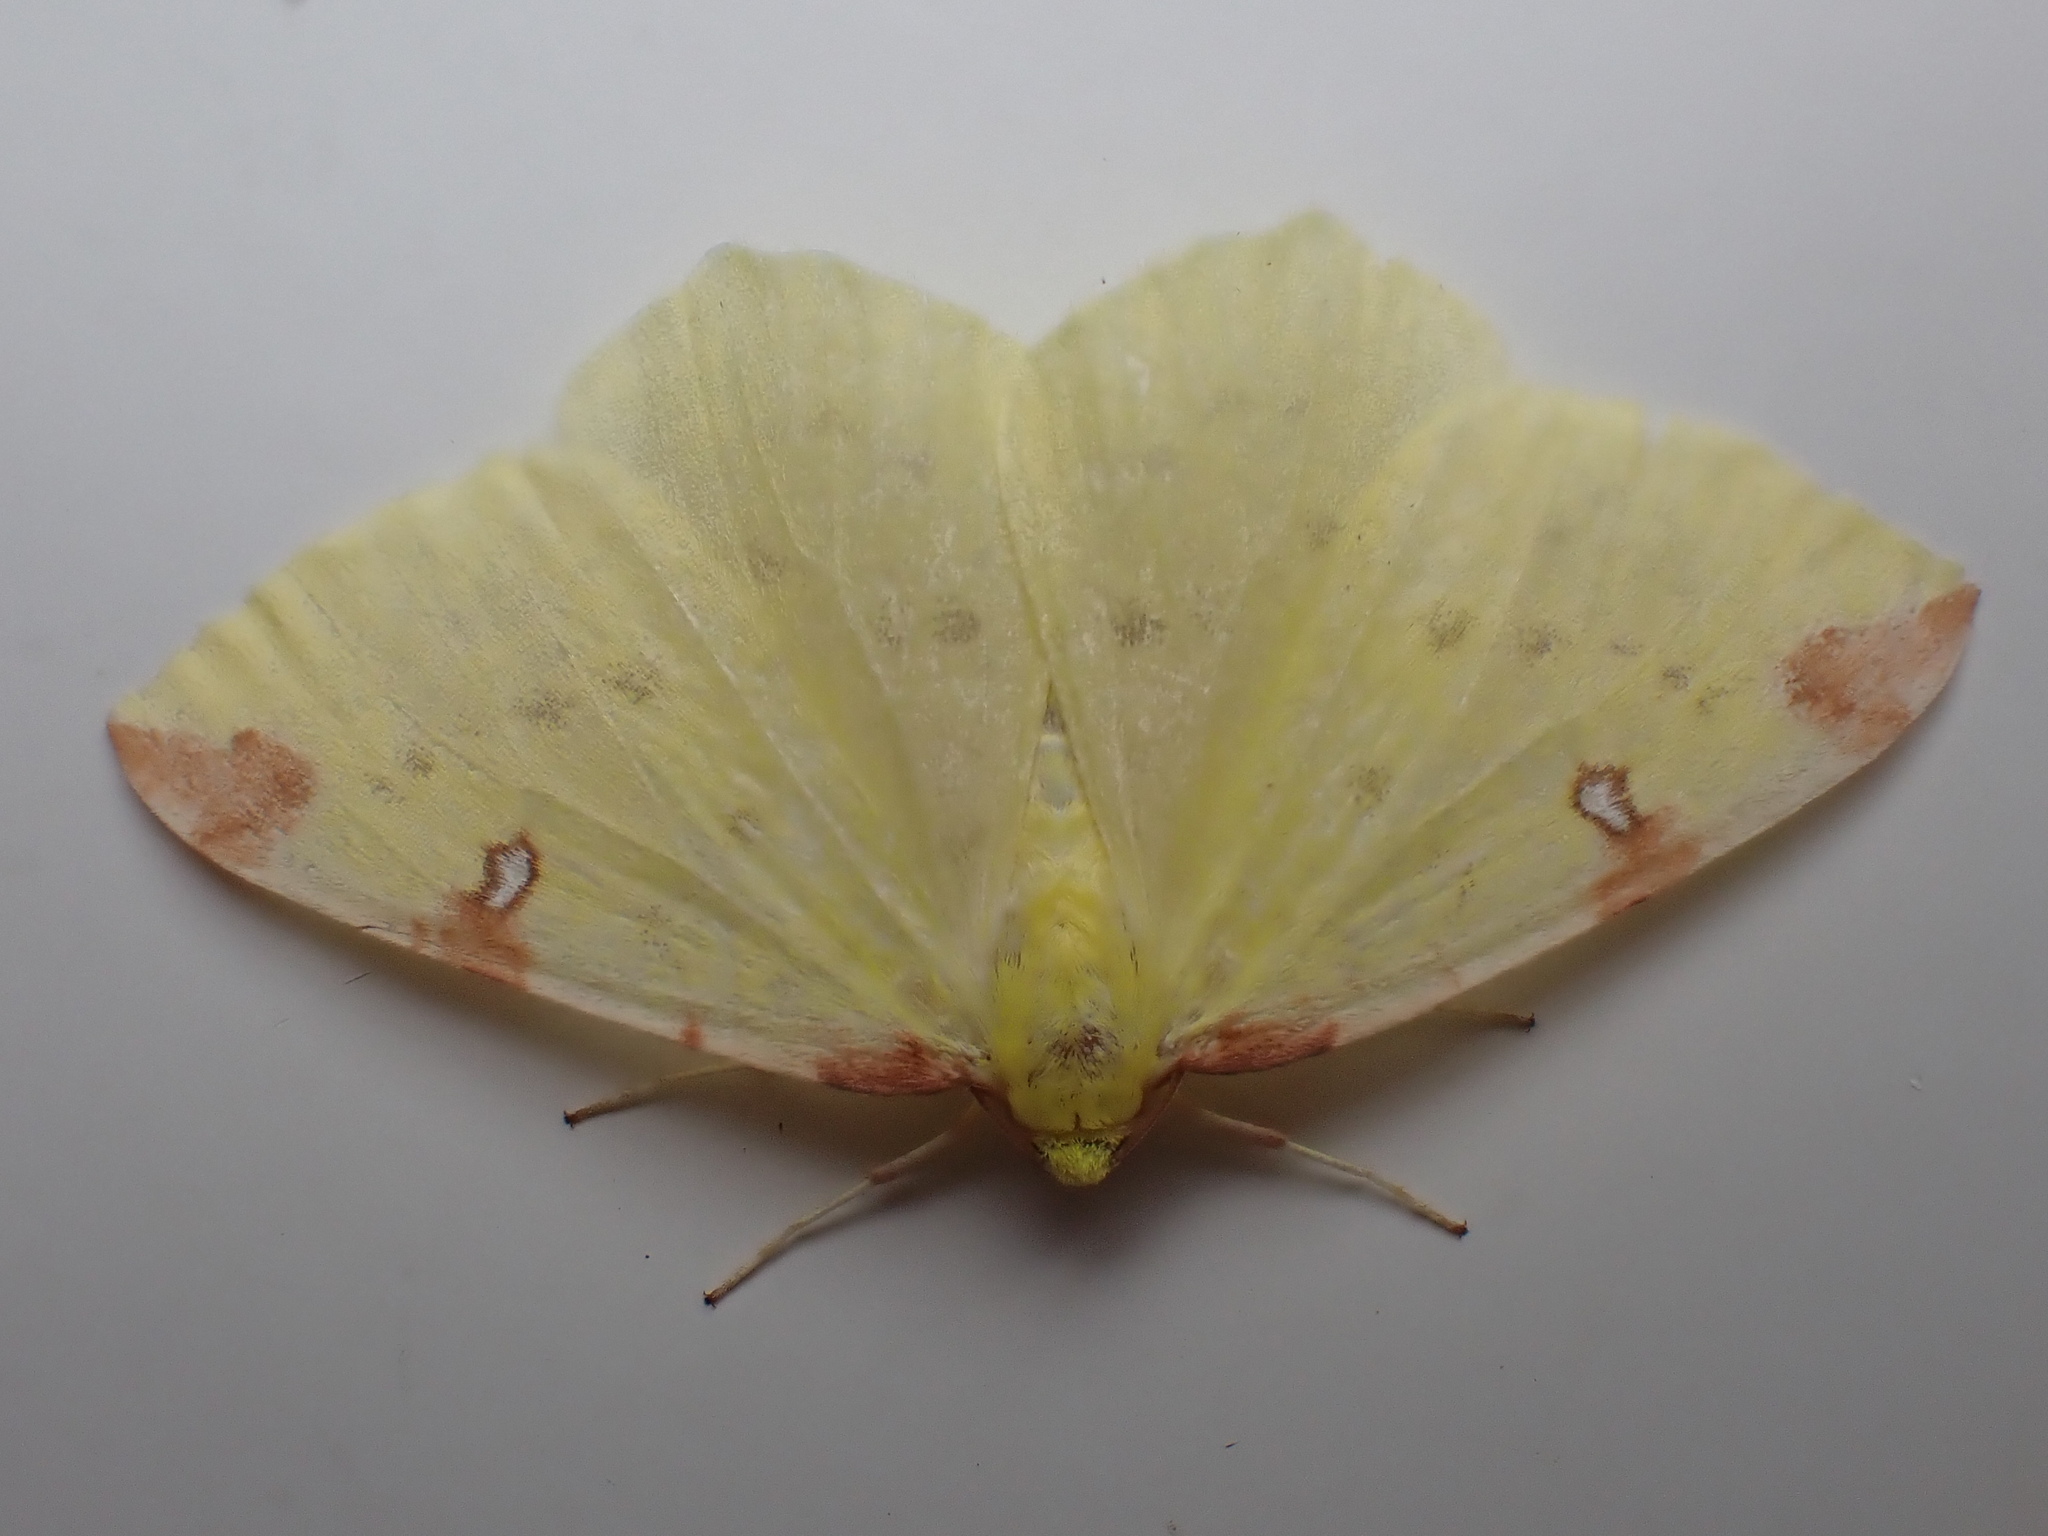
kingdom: Animalia
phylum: Arthropoda
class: Insecta
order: Lepidoptera
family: Geometridae
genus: Opisthograptis
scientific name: Opisthograptis luteolata
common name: Brimstone moth
